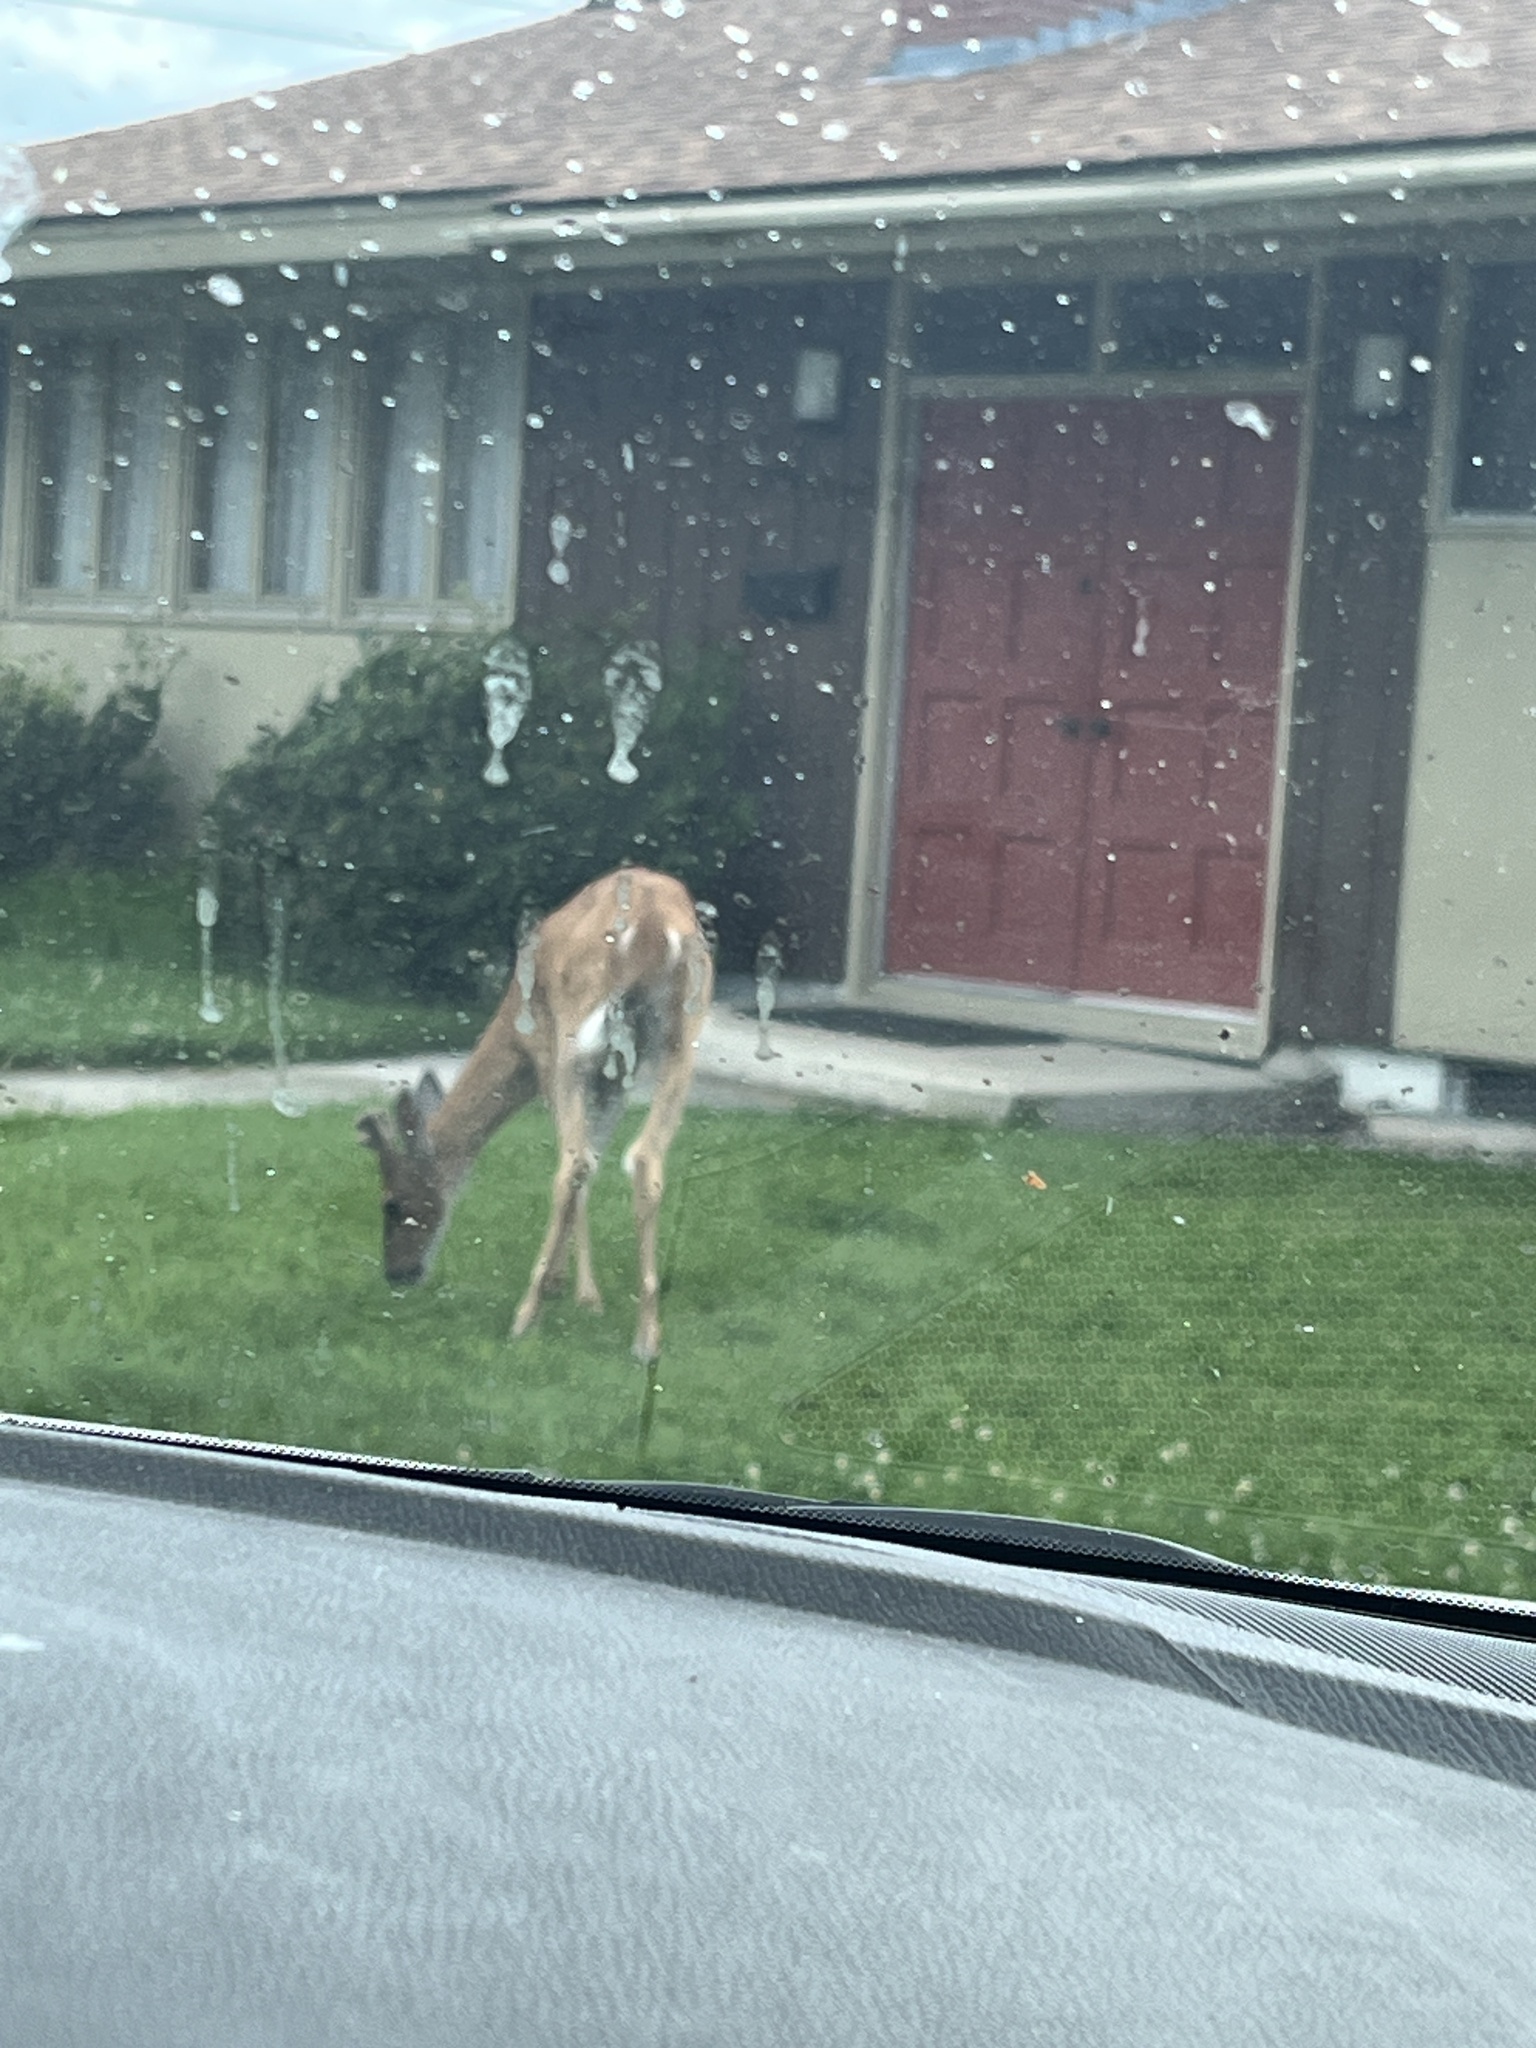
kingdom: Animalia
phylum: Chordata
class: Mammalia
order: Artiodactyla
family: Cervidae
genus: Odocoileus
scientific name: Odocoileus virginianus
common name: White-tailed deer
